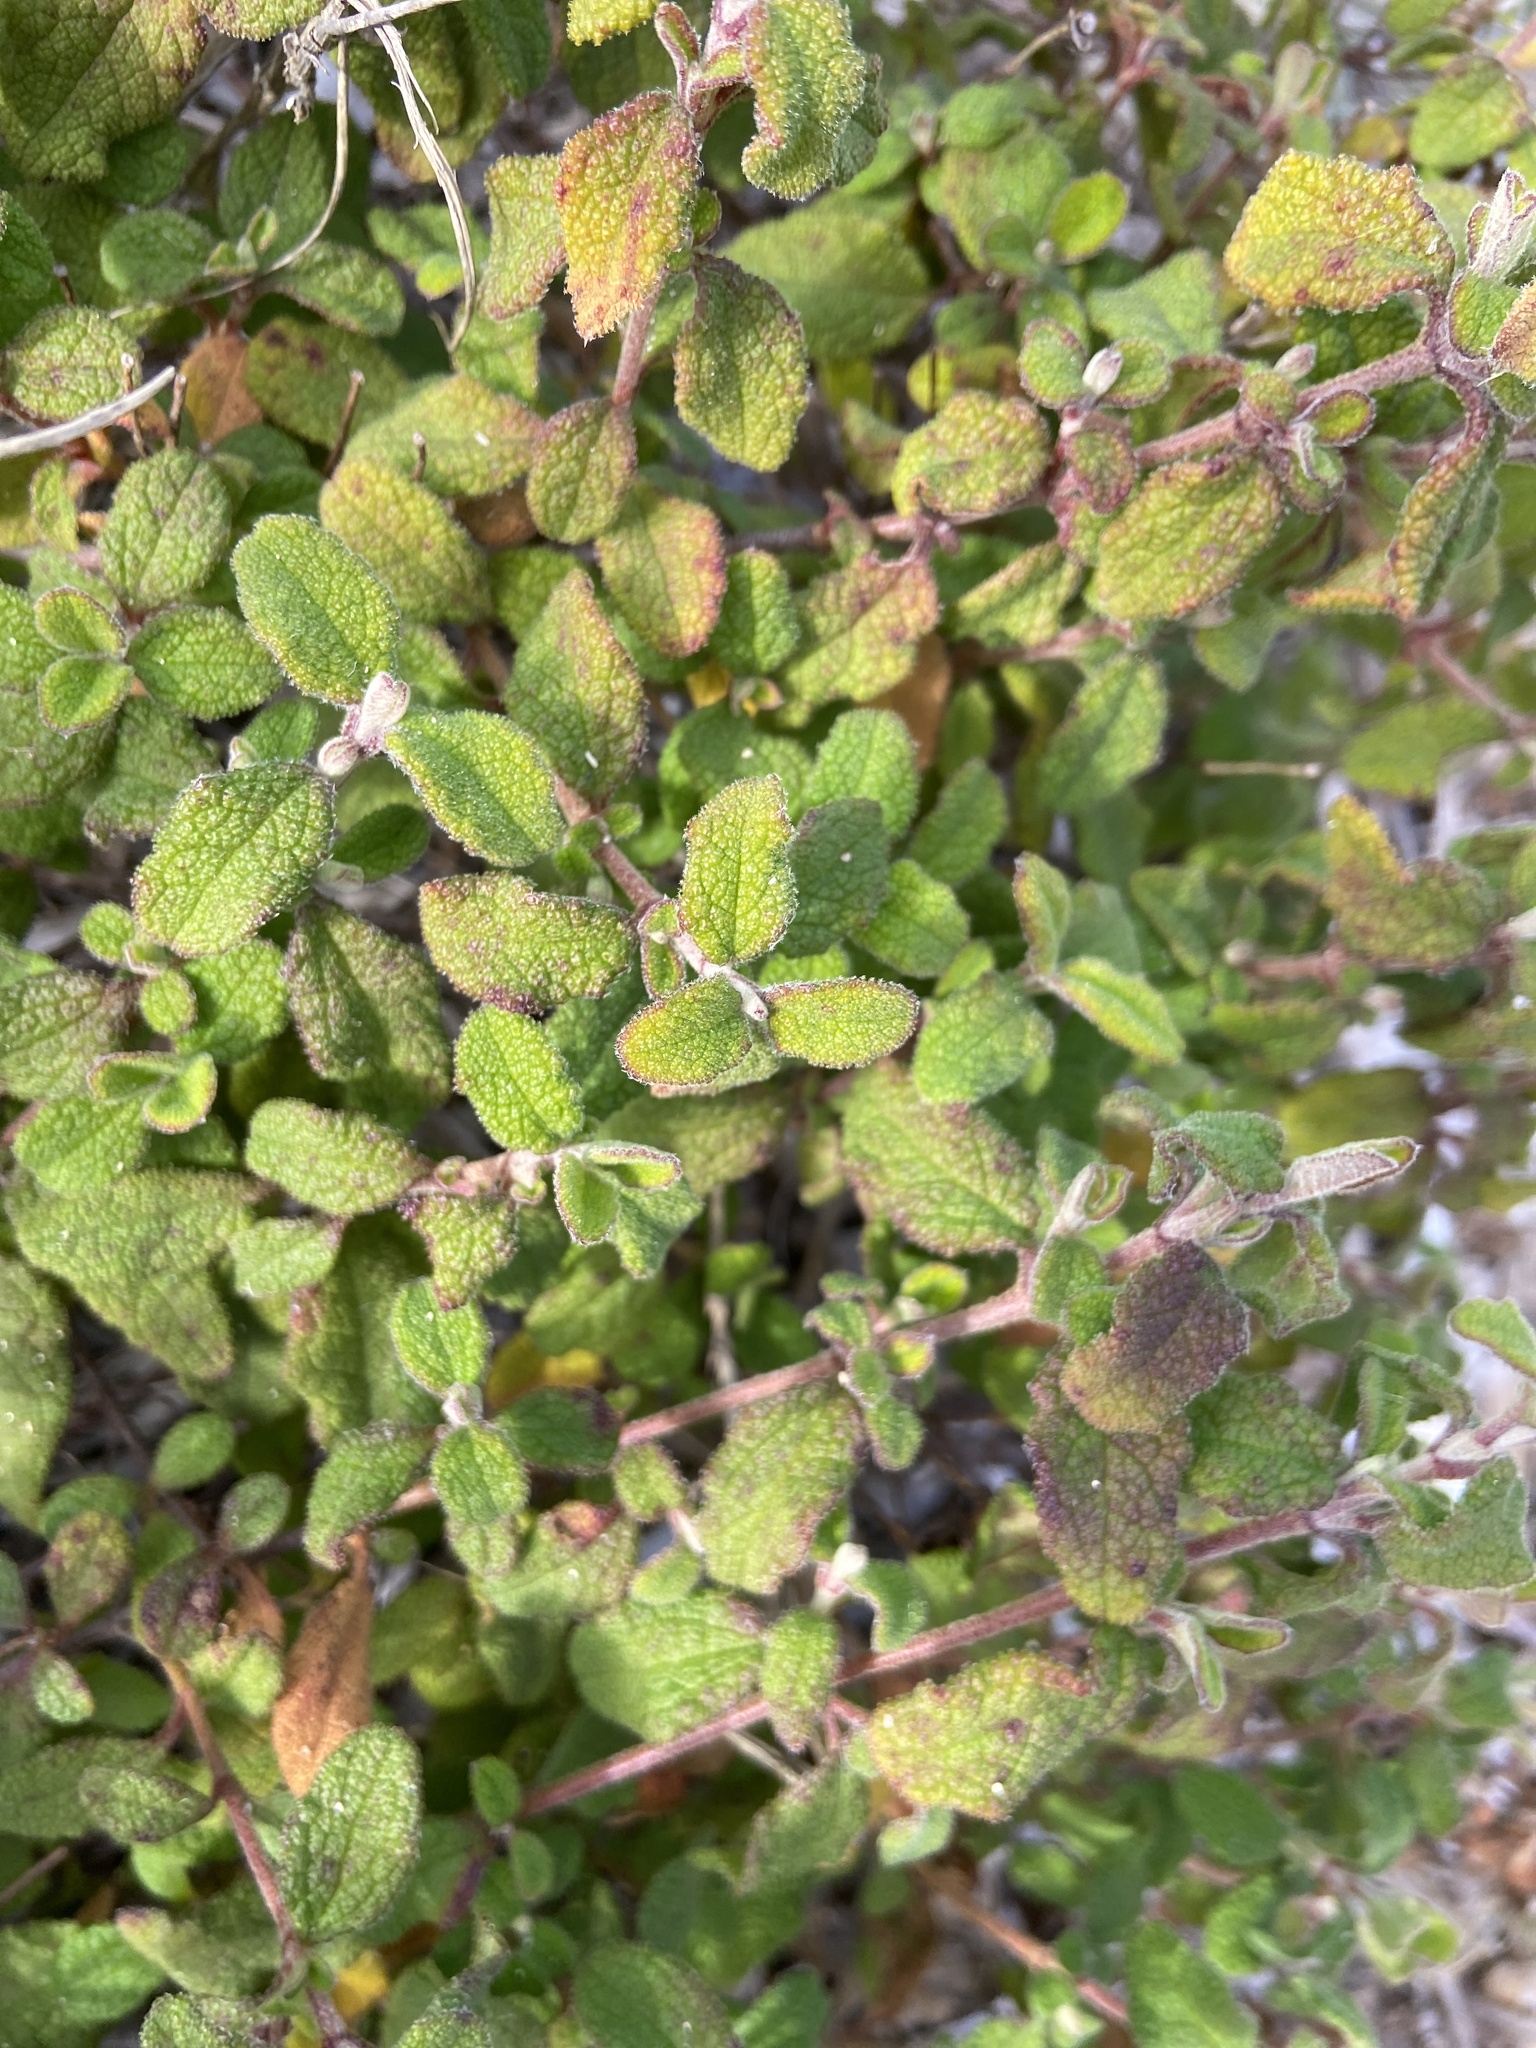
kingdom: Plantae
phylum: Tracheophyta
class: Magnoliopsida
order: Malvales
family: Cistaceae
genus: Cistus
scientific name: Cistus salviifolius
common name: Salvia cistus
